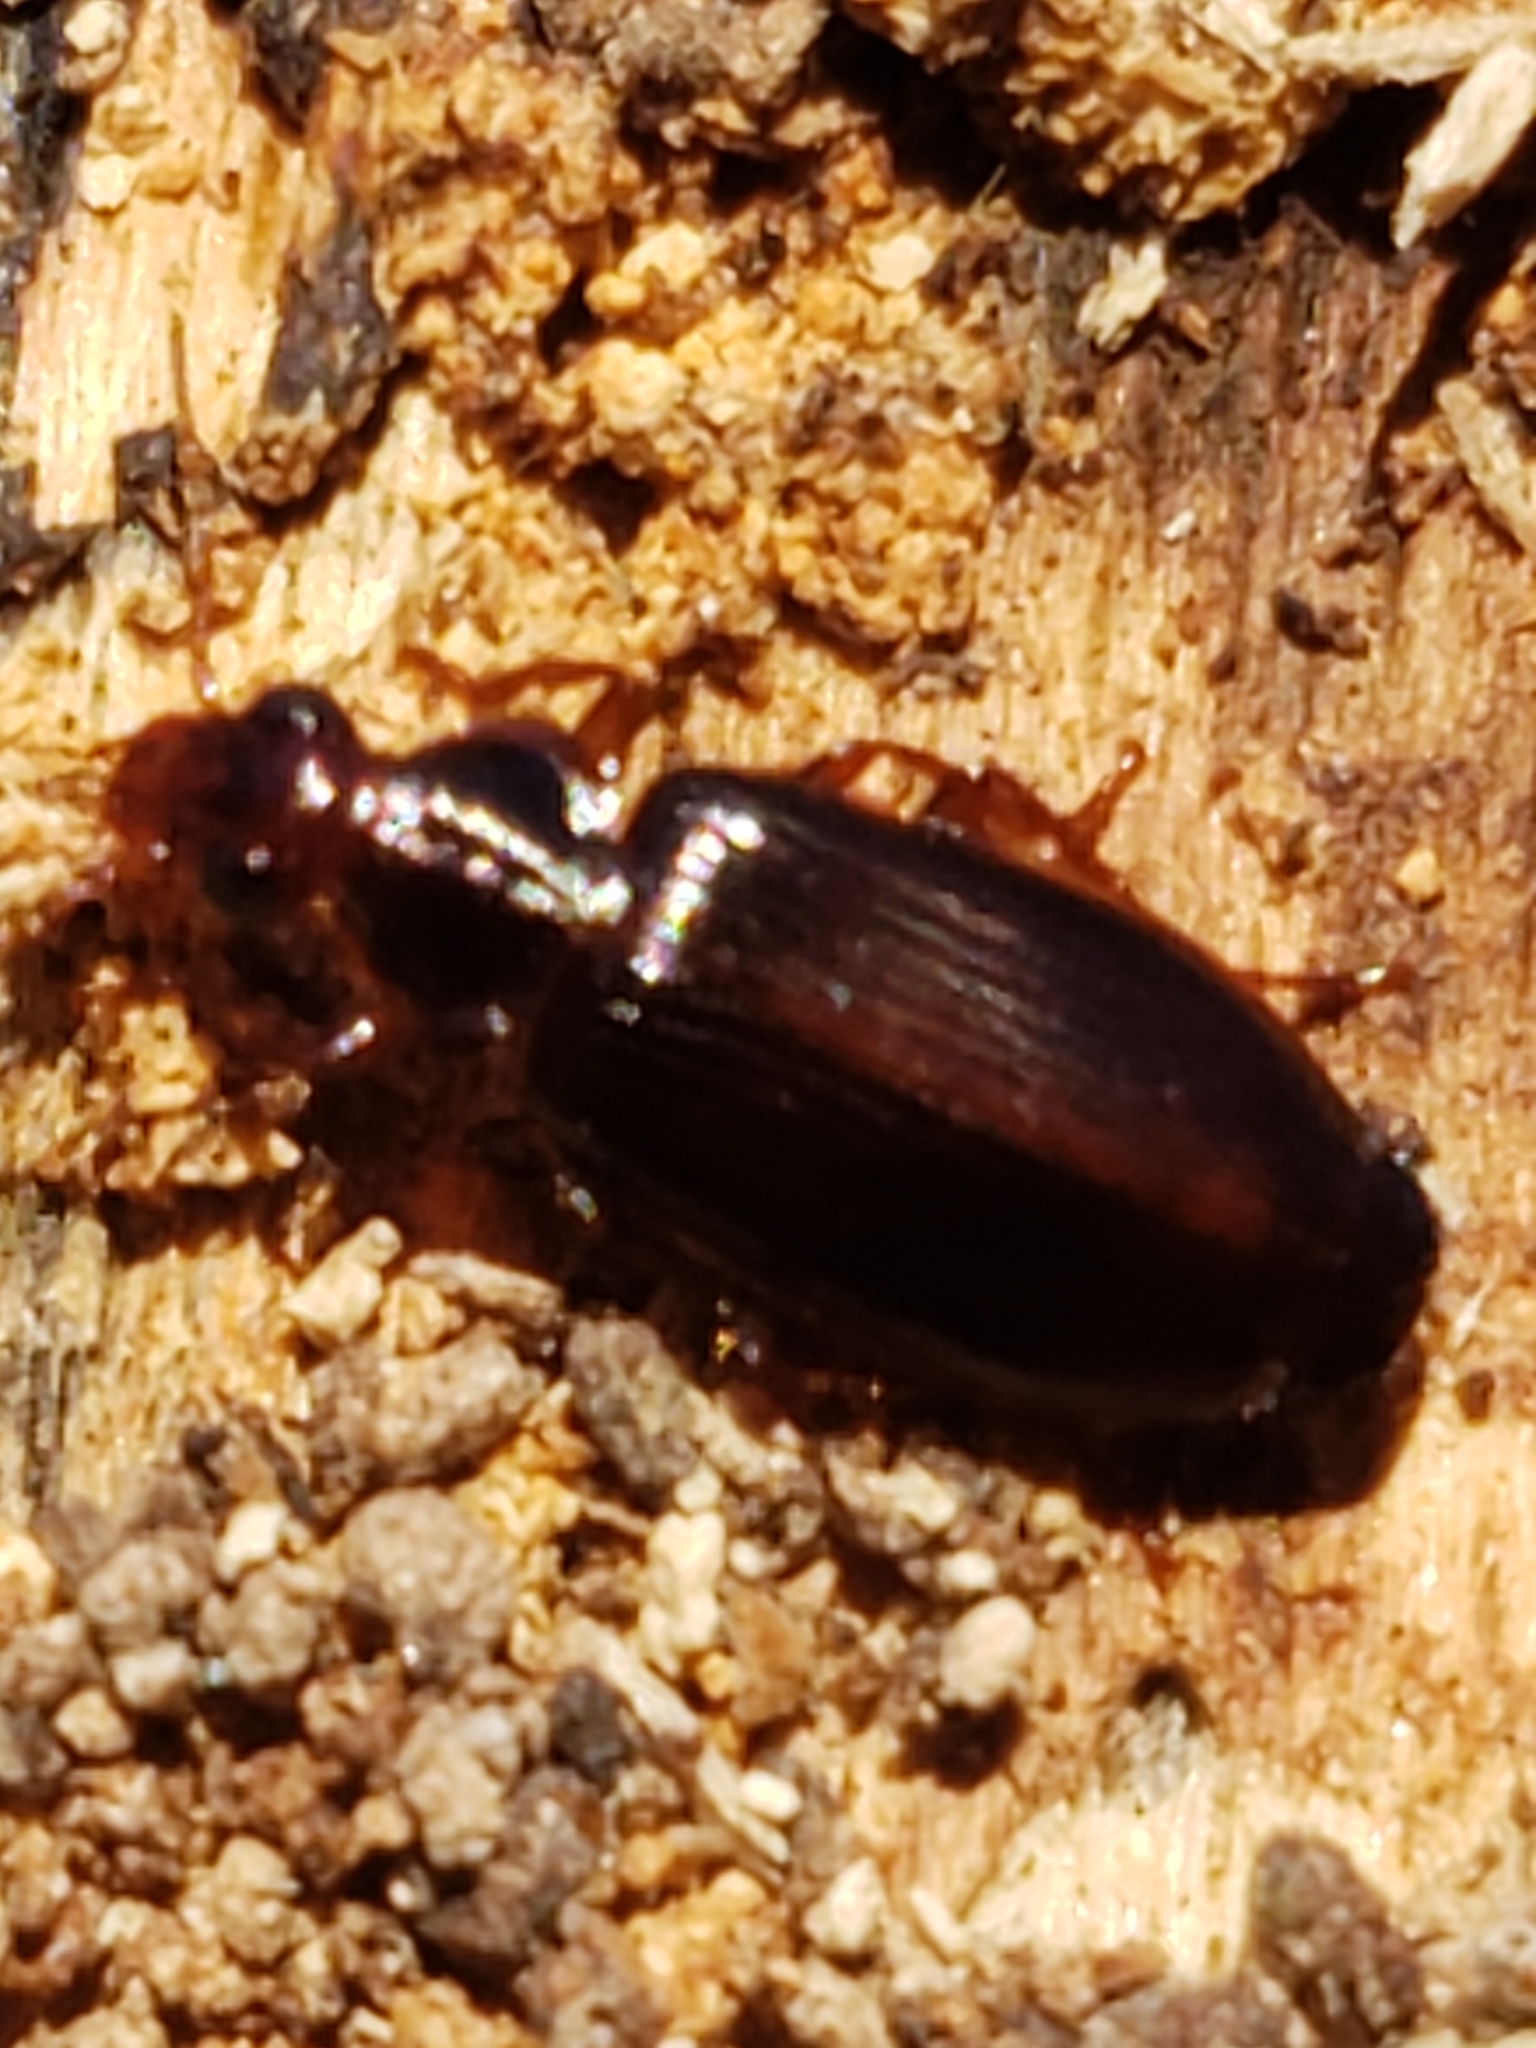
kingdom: Animalia
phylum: Arthropoda
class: Insecta
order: Coleoptera
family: Carabidae
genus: Plochionus
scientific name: Plochionus timidus
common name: Timid harp ground beetle
